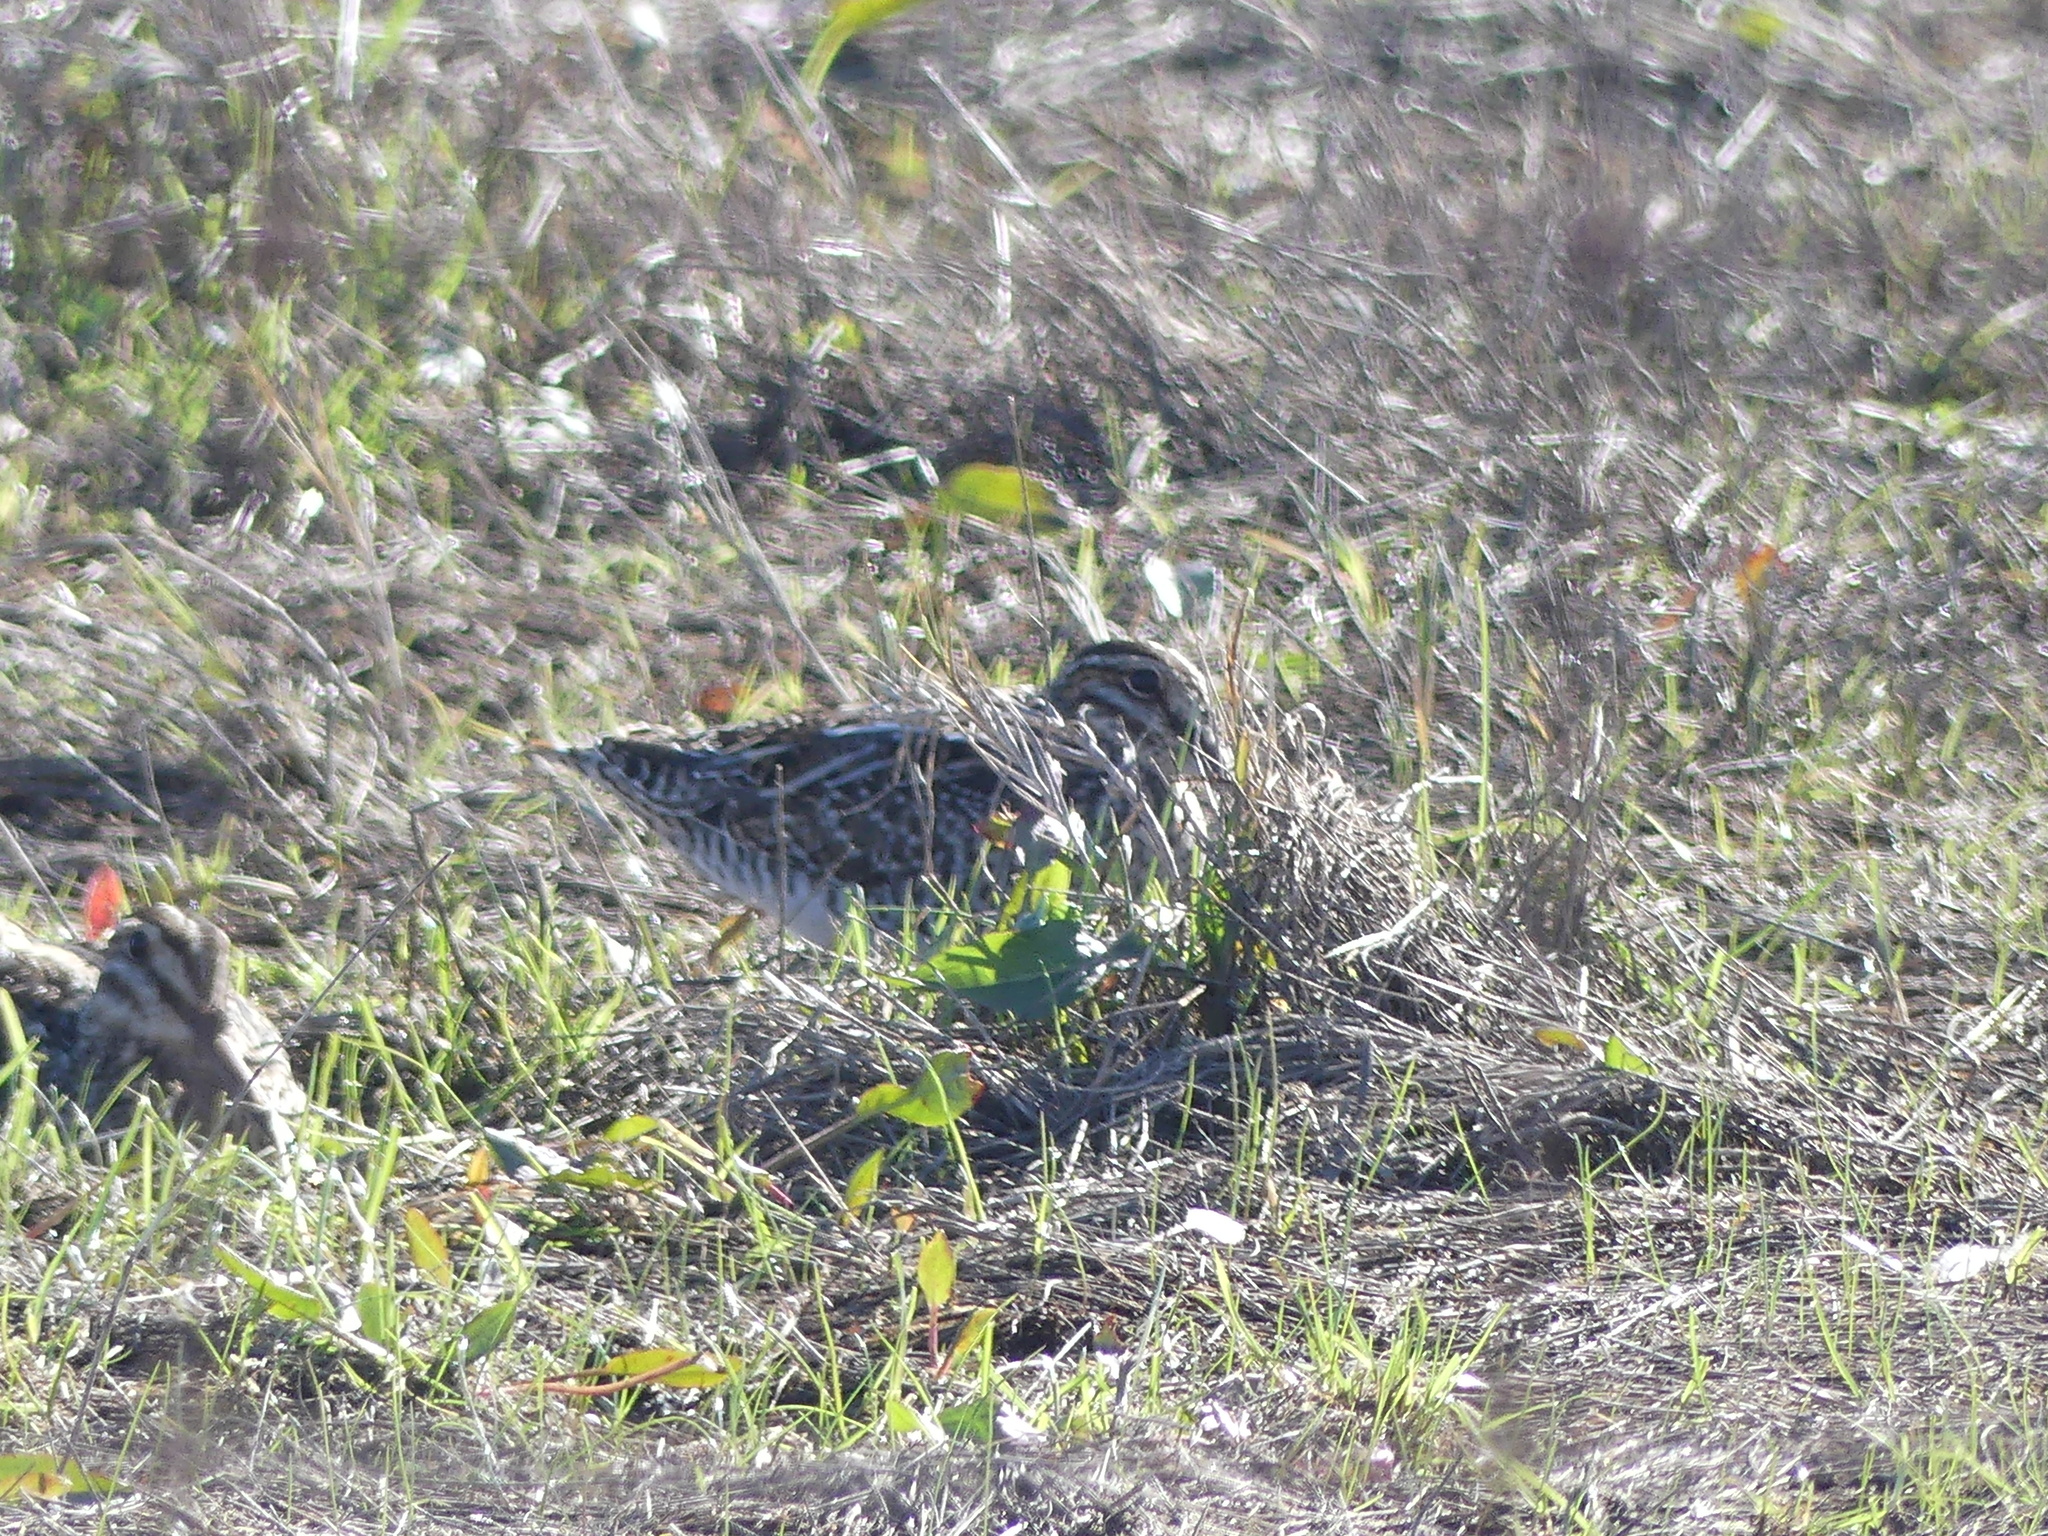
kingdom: Animalia
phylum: Chordata
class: Aves
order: Charadriiformes
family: Scolopacidae
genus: Gallinago
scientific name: Gallinago delicata
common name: Wilson's snipe
